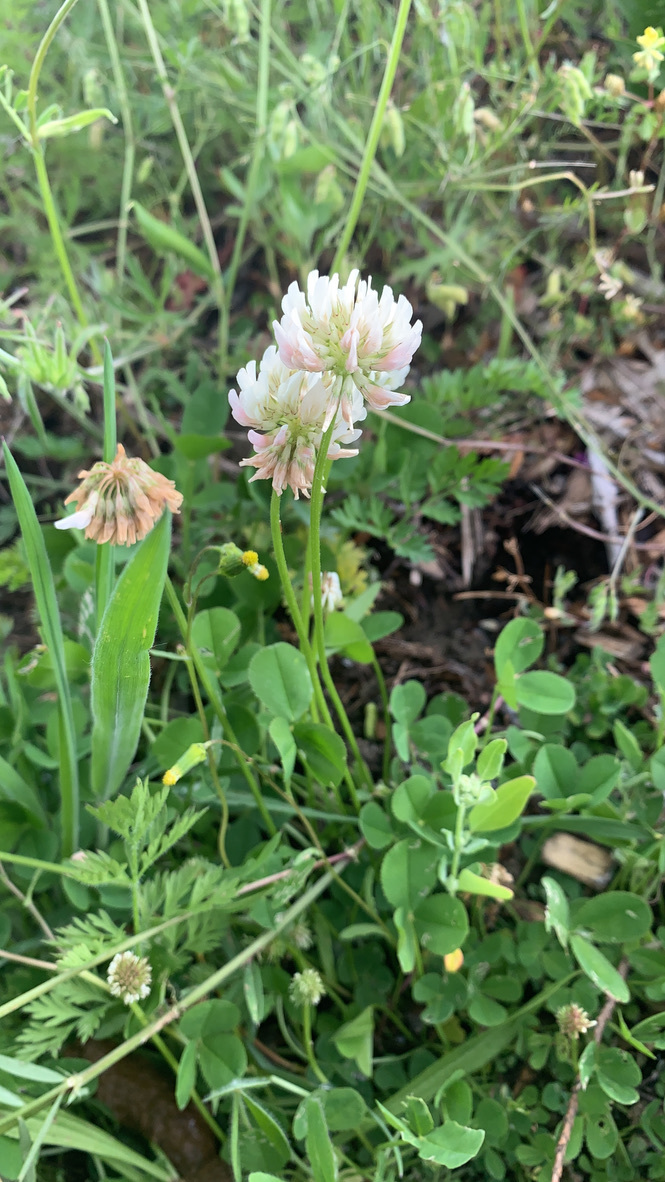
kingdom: Plantae
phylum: Tracheophyta
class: Magnoliopsida
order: Fabales
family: Fabaceae
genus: Trifolium
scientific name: Trifolium repens
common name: White clover
